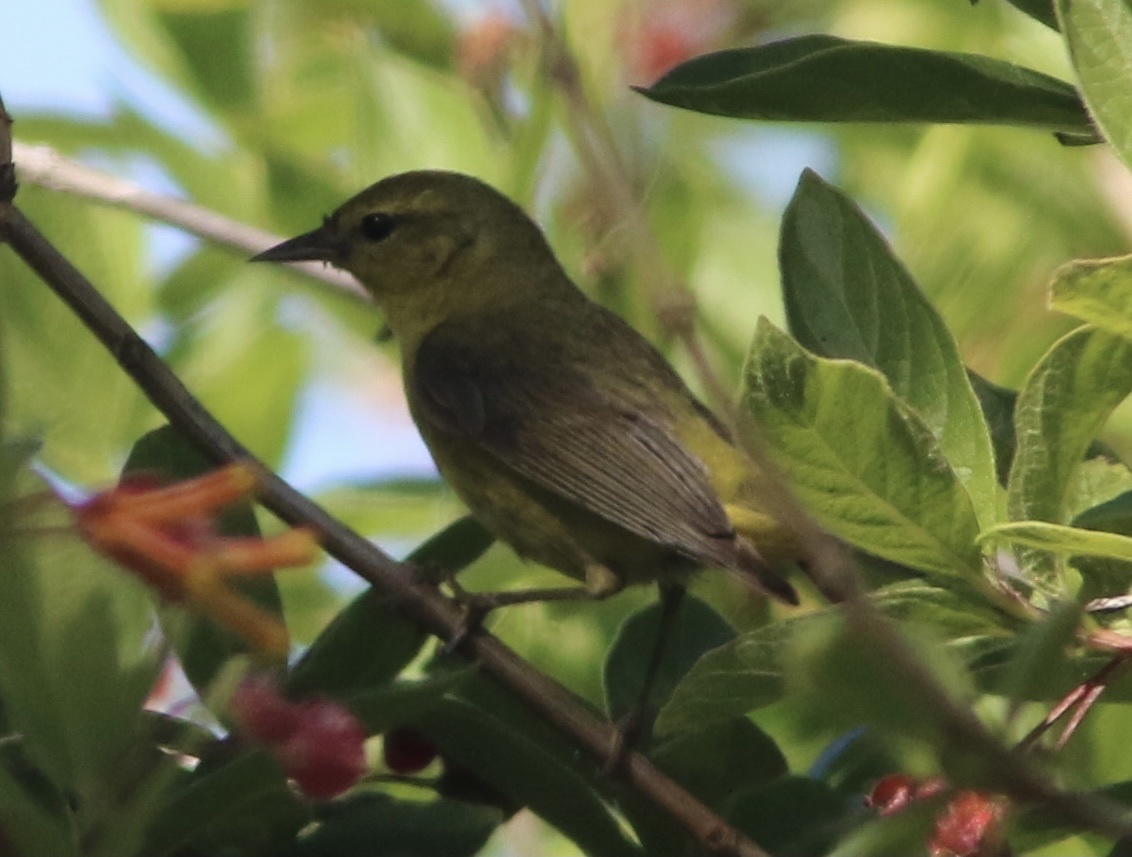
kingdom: Animalia
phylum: Chordata
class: Aves
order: Passeriformes
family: Parulidae
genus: Leiothlypis
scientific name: Leiothlypis celata
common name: Orange-crowned warbler
